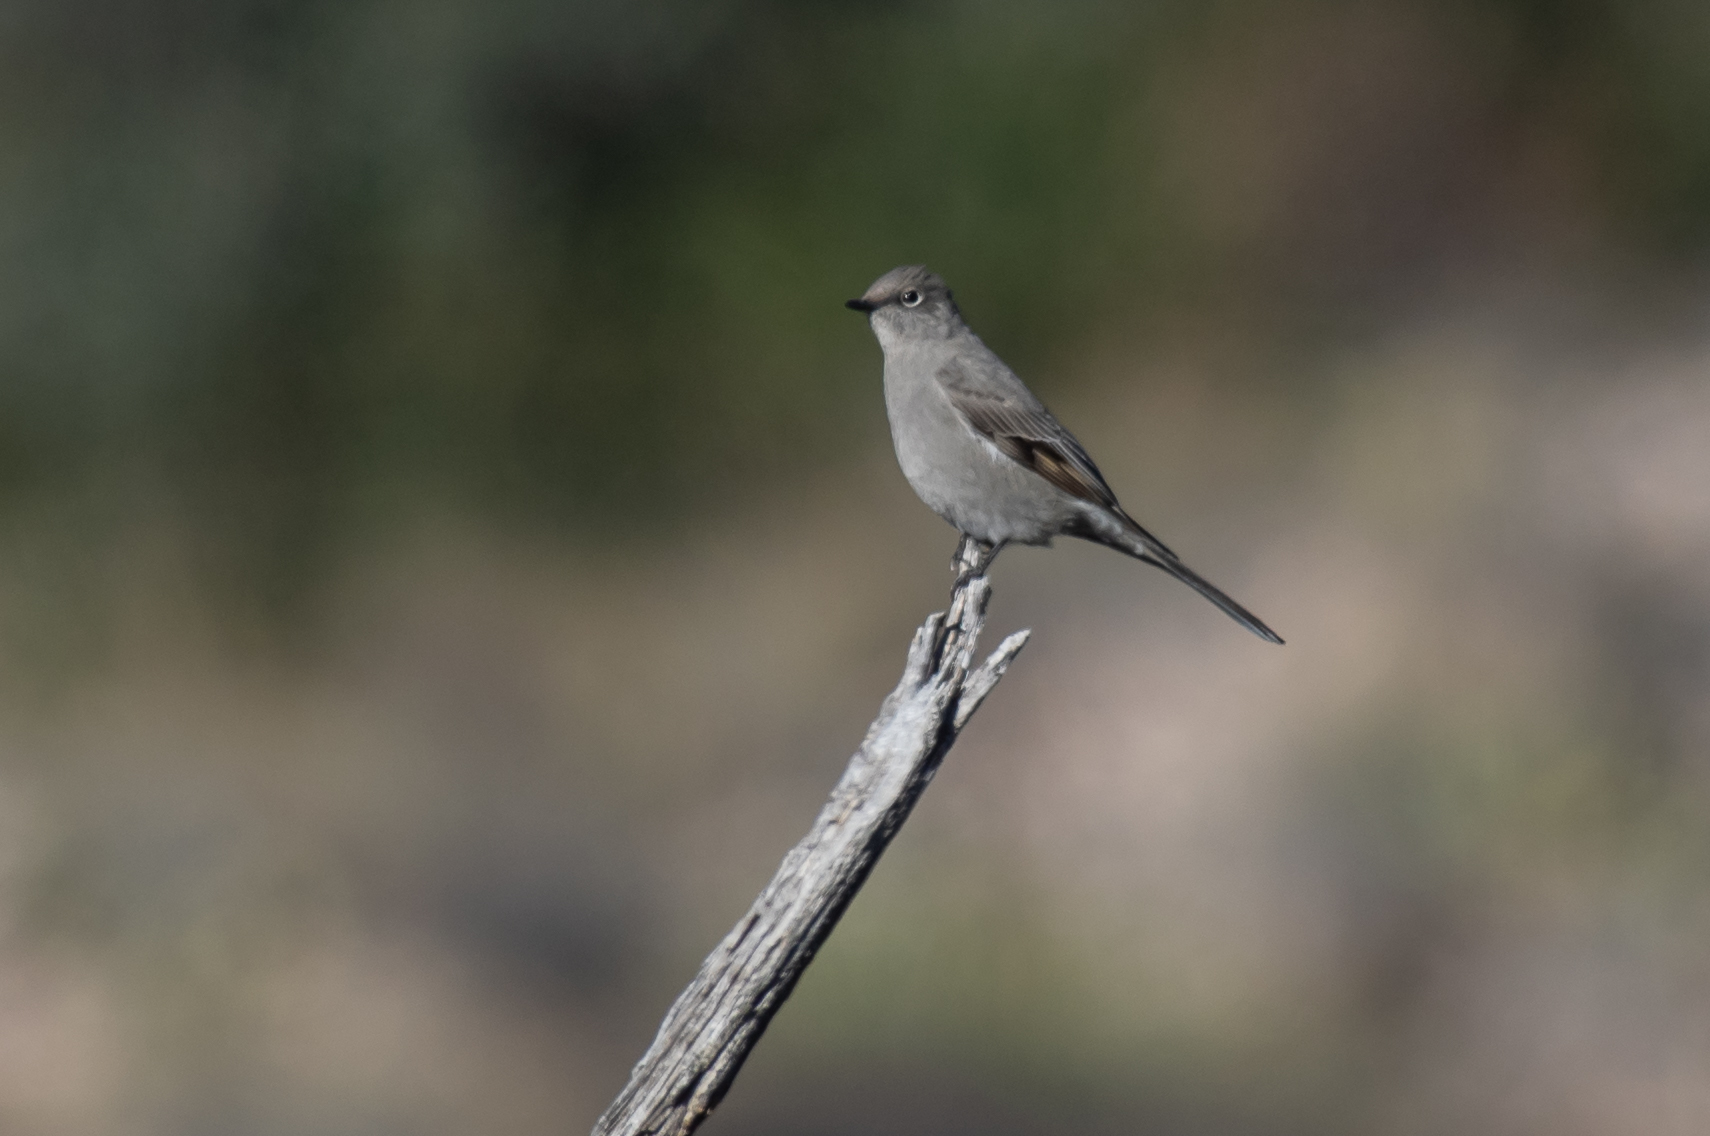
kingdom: Animalia
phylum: Chordata
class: Aves
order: Passeriformes
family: Turdidae
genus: Myadestes
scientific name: Myadestes townsendi
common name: Townsend's solitaire
